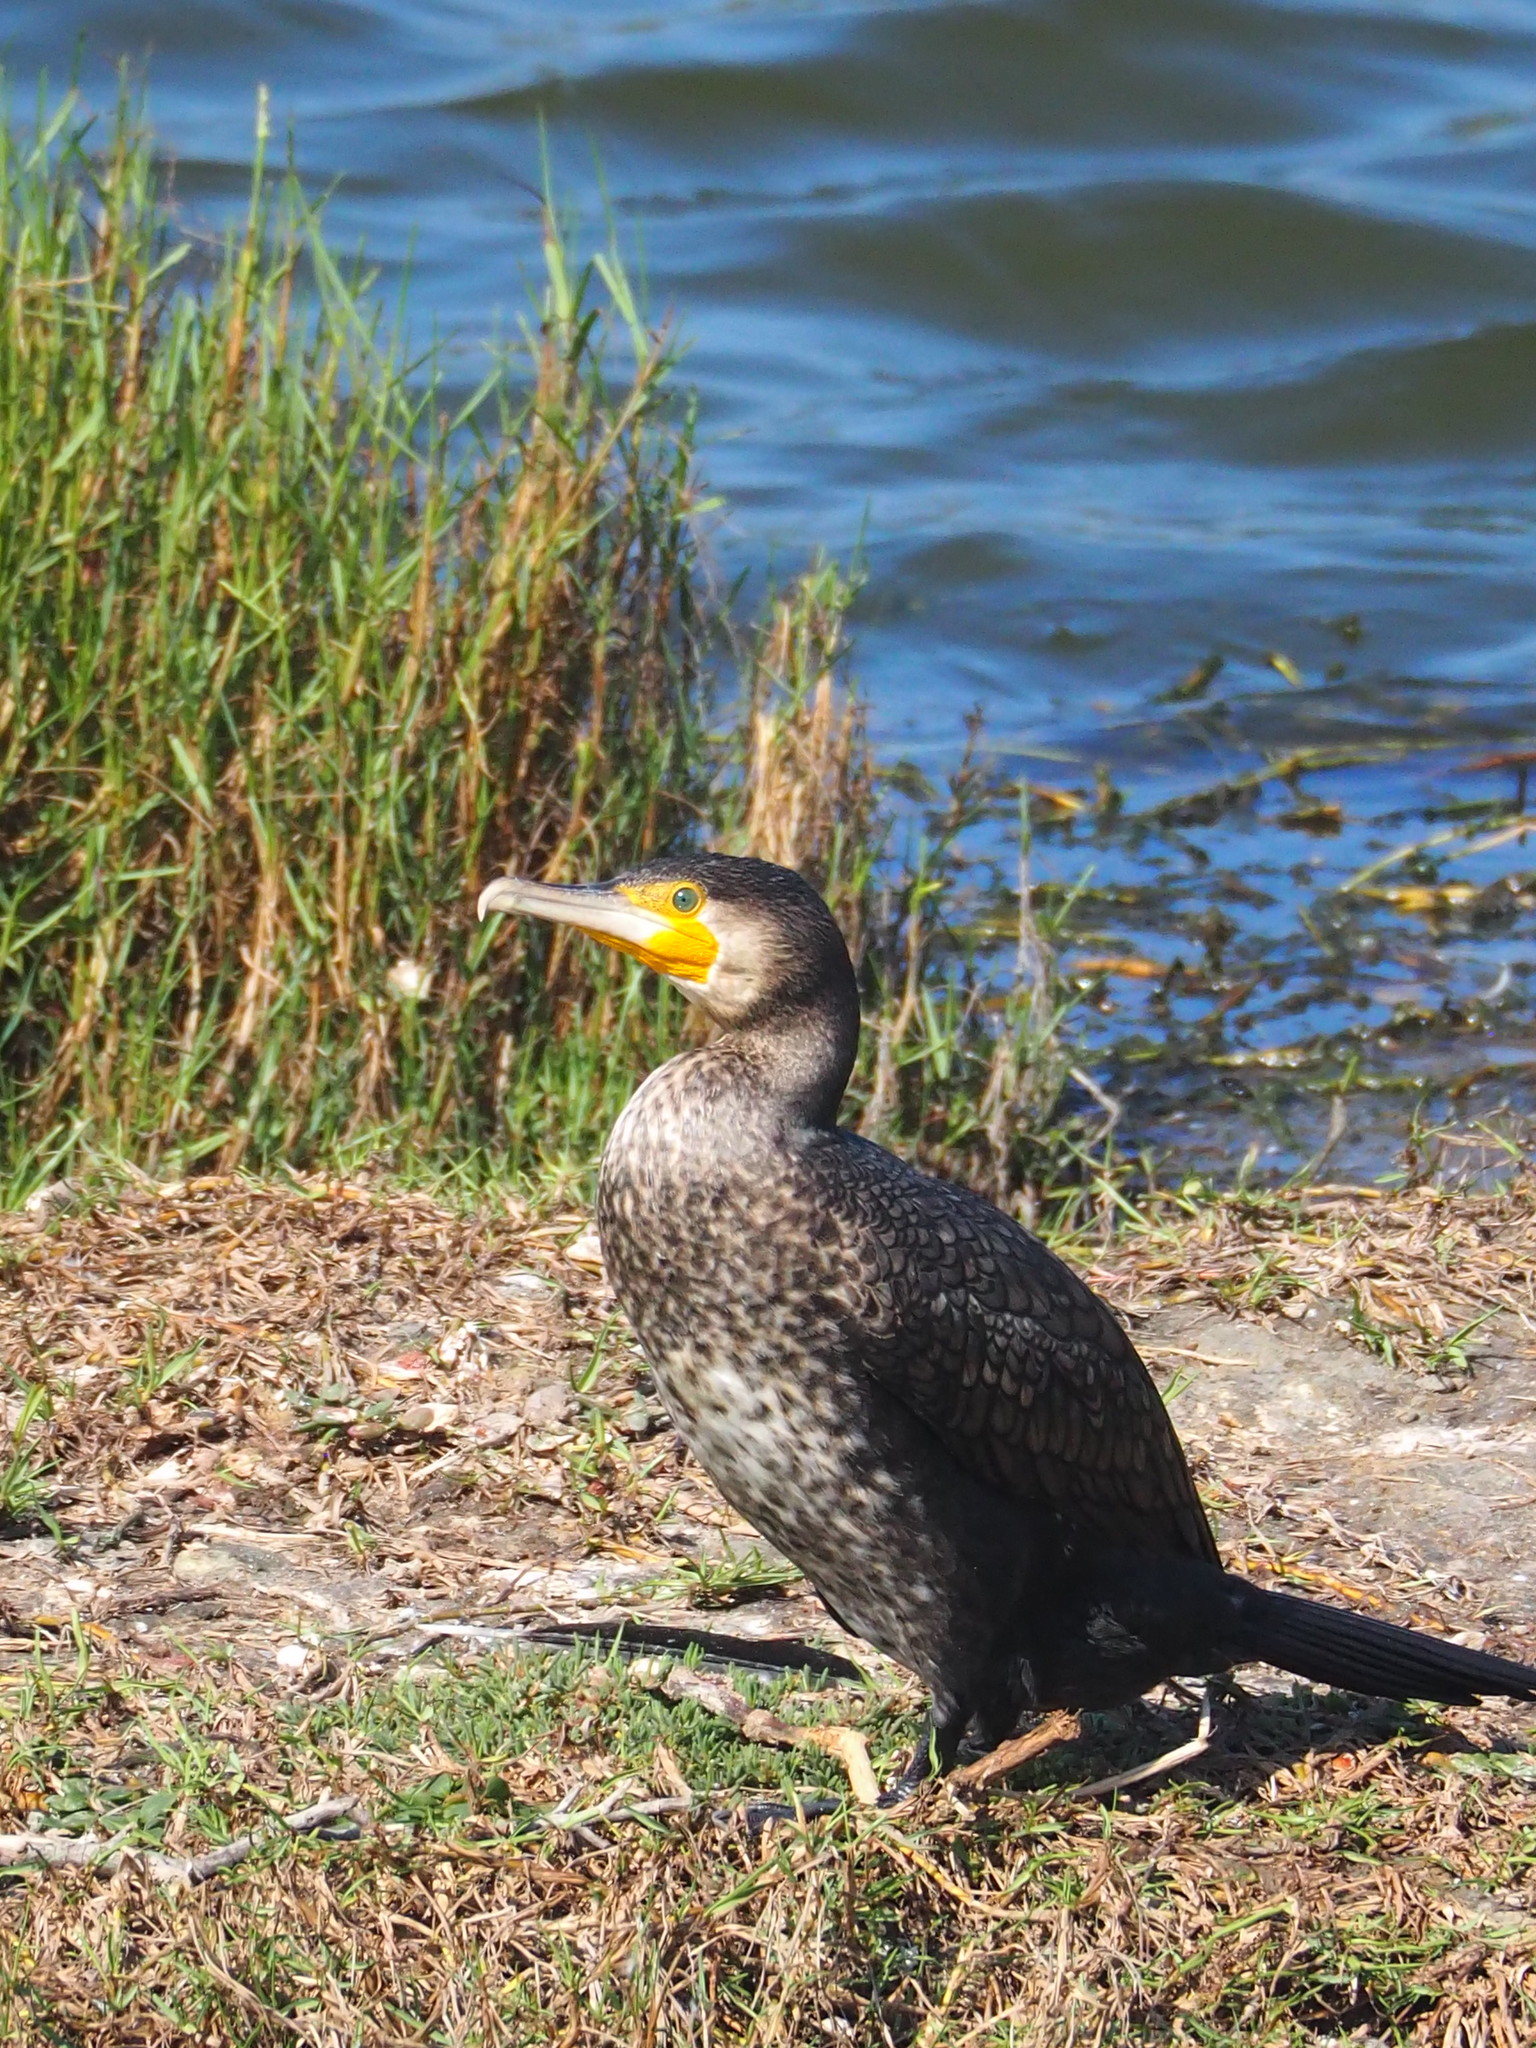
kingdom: Animalia
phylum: Chordata
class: Aves
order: Suliformes
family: Phalacrocoracidae
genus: Phalacrocorax
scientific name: Phalacrocorax carbo
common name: Great cormorant
